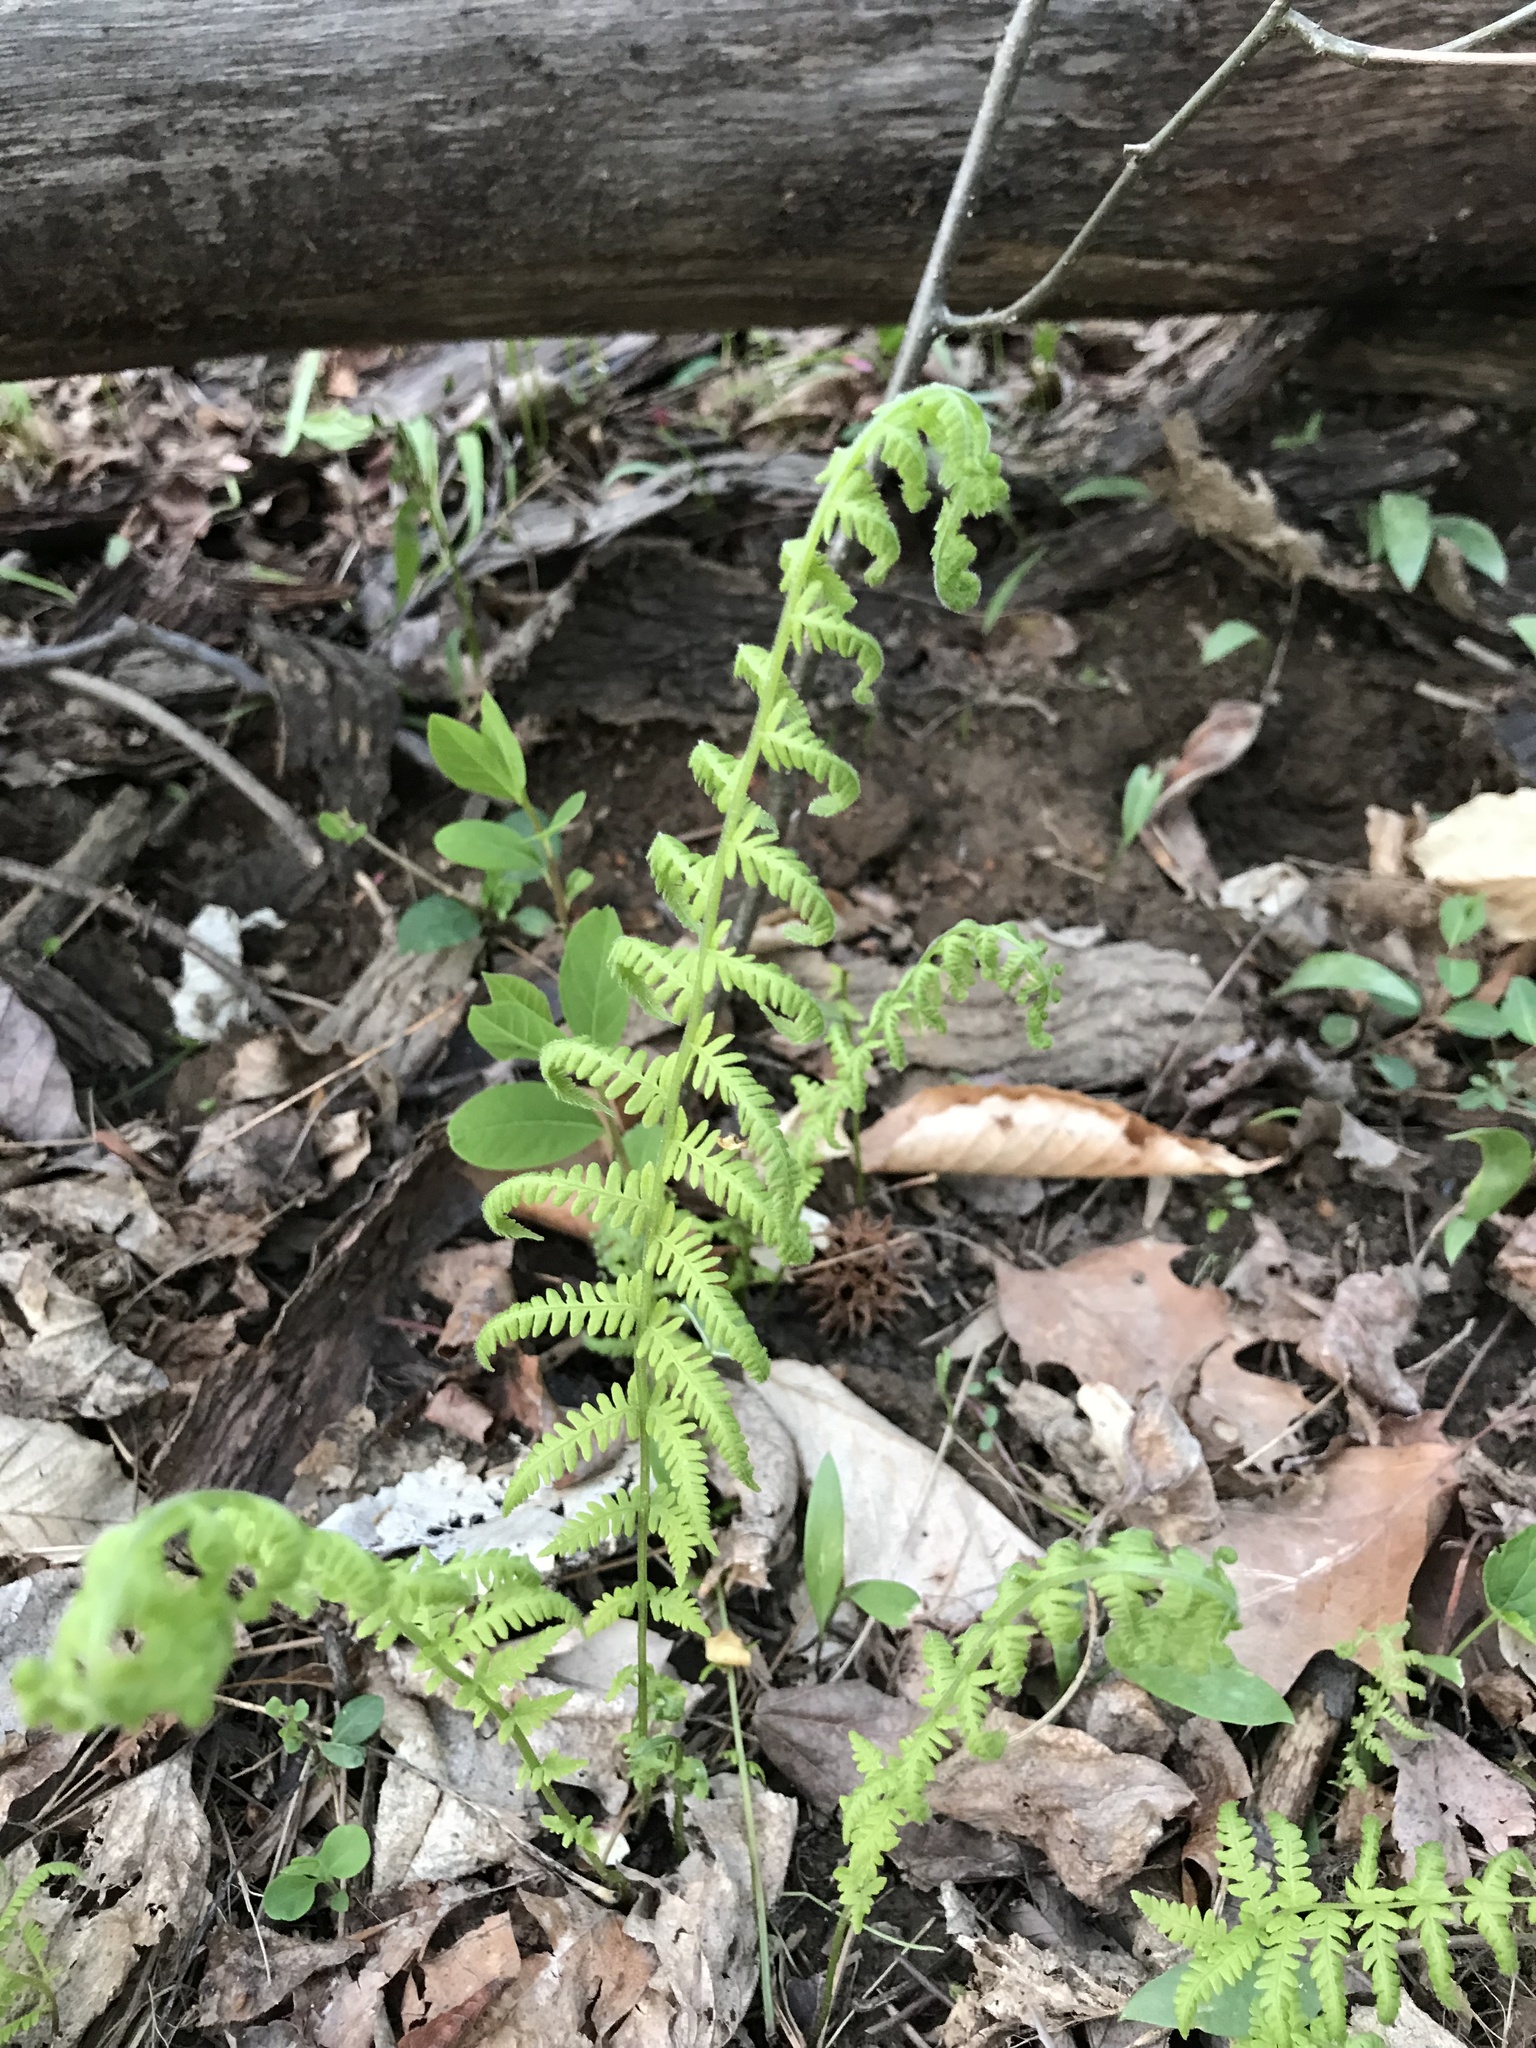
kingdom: Plantae
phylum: Tracheophyta
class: Polypodiopsida
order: Polypodiales
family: Thelypteridaceae
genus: Amauropelta
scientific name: Amauropelta noveboracensis
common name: New york fern
